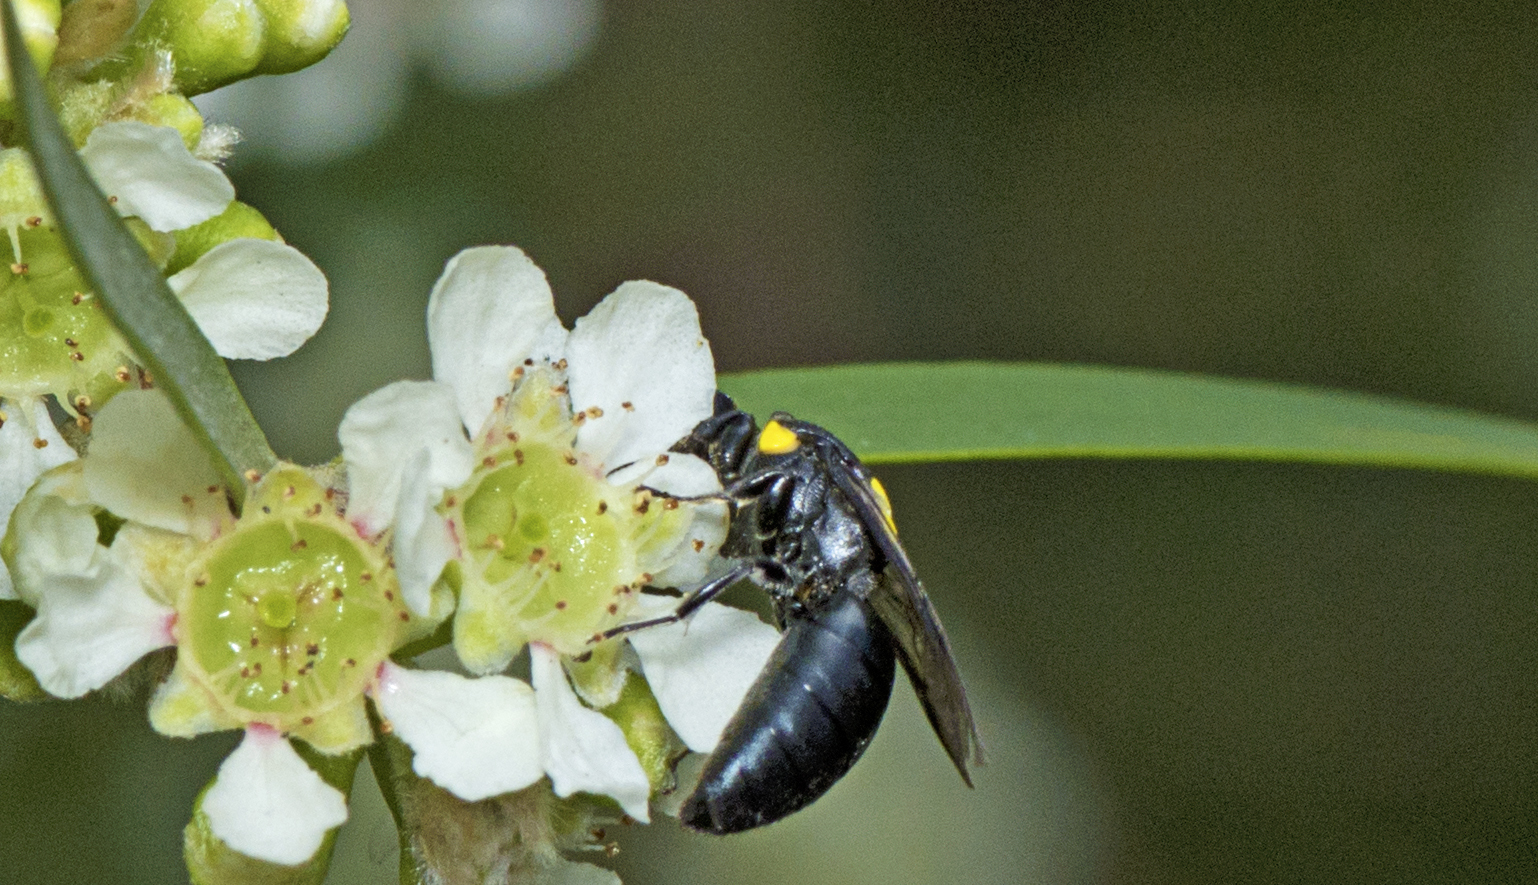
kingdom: Animalia
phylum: Arthropoda
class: Insecta
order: Hymenoptera
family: Colletidae
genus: Hylaeus
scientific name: Hylaeus rotundiceps
